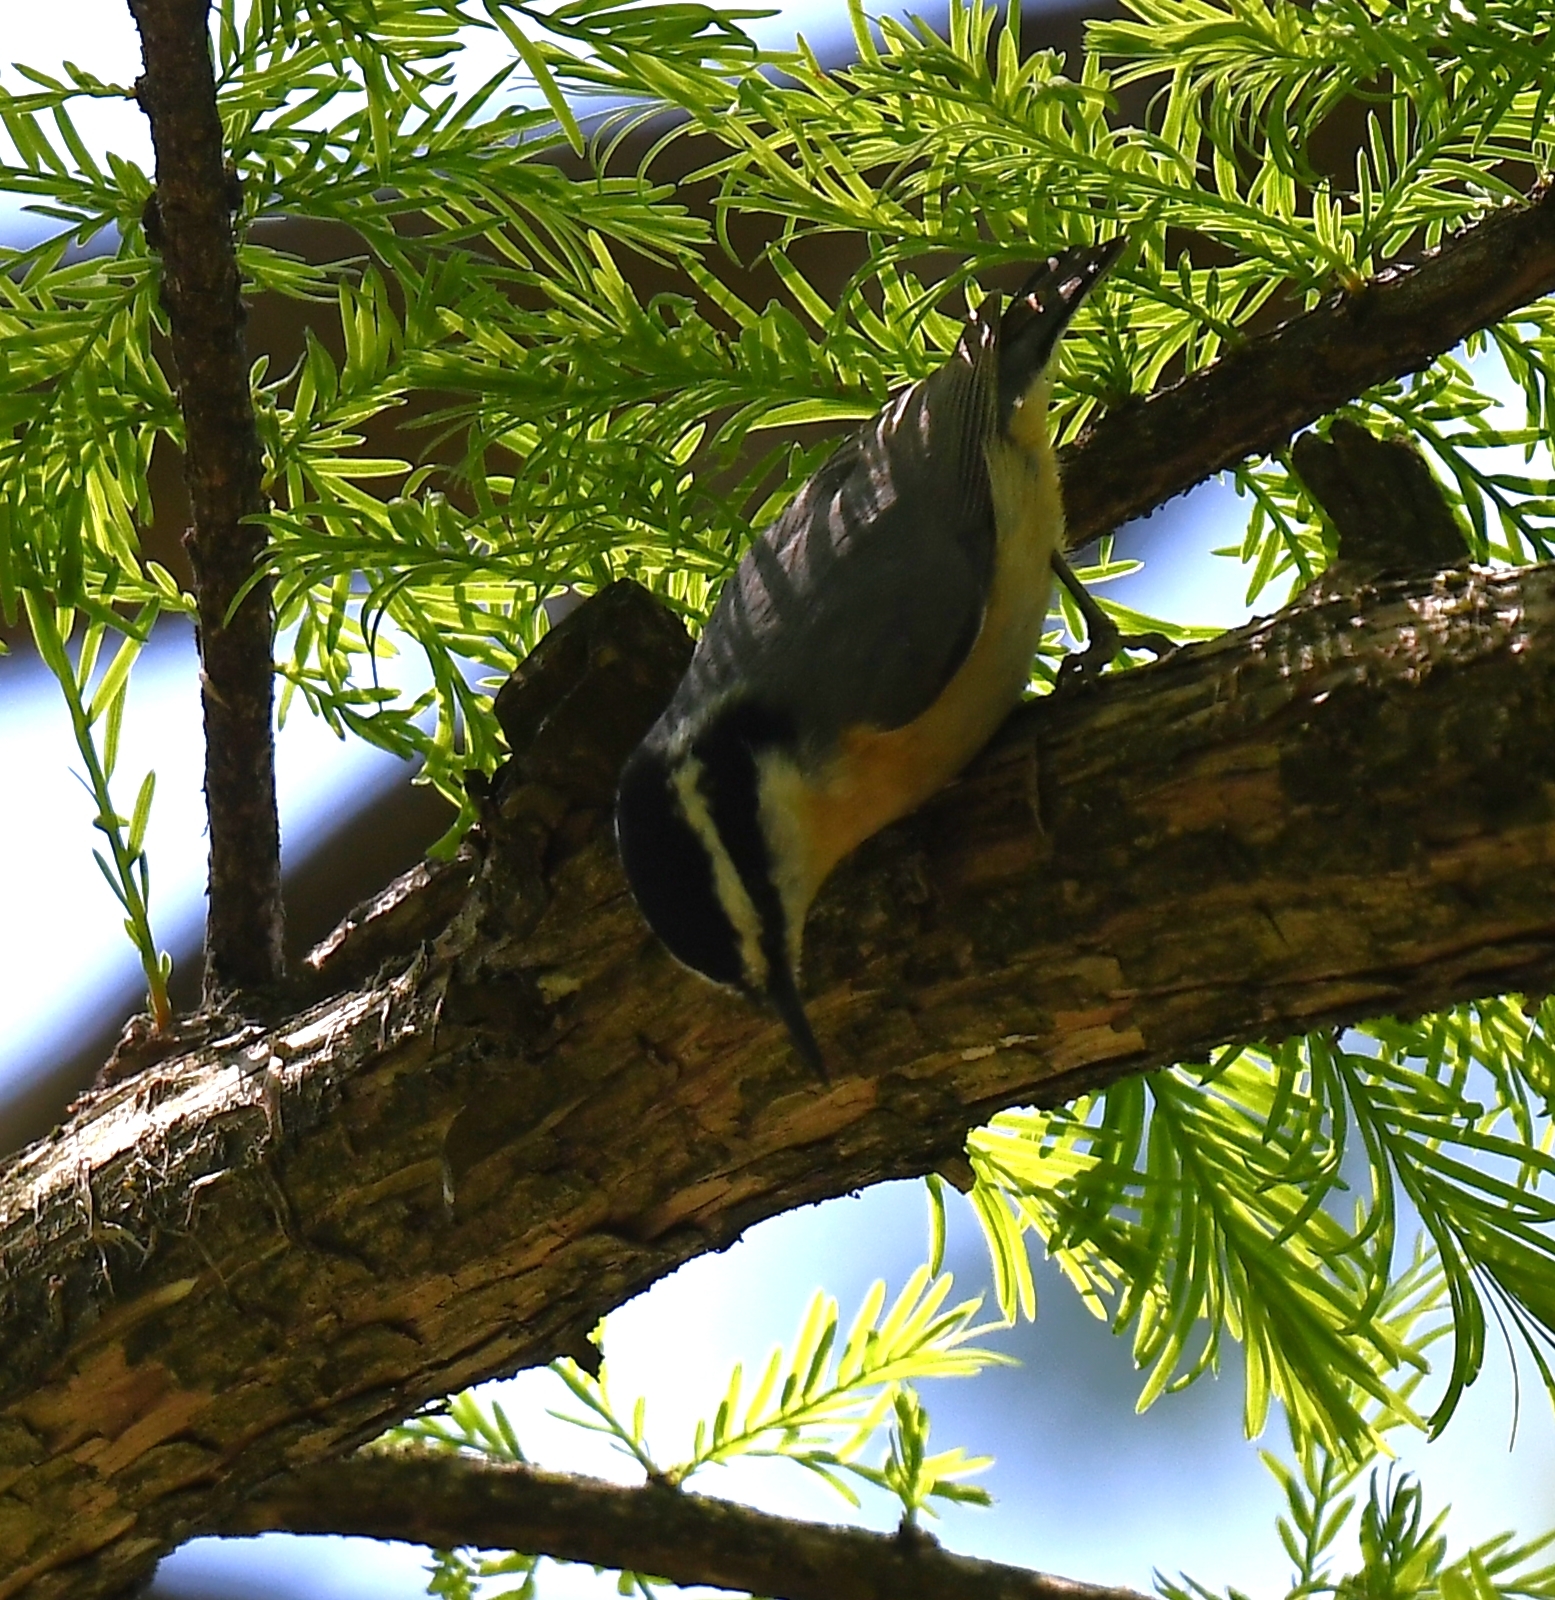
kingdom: Animalia
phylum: Chordata
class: Aves
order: Passeriformes
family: Sittidae
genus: Sitta
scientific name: Sitta canadensis
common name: Red-breasted nuthatch
